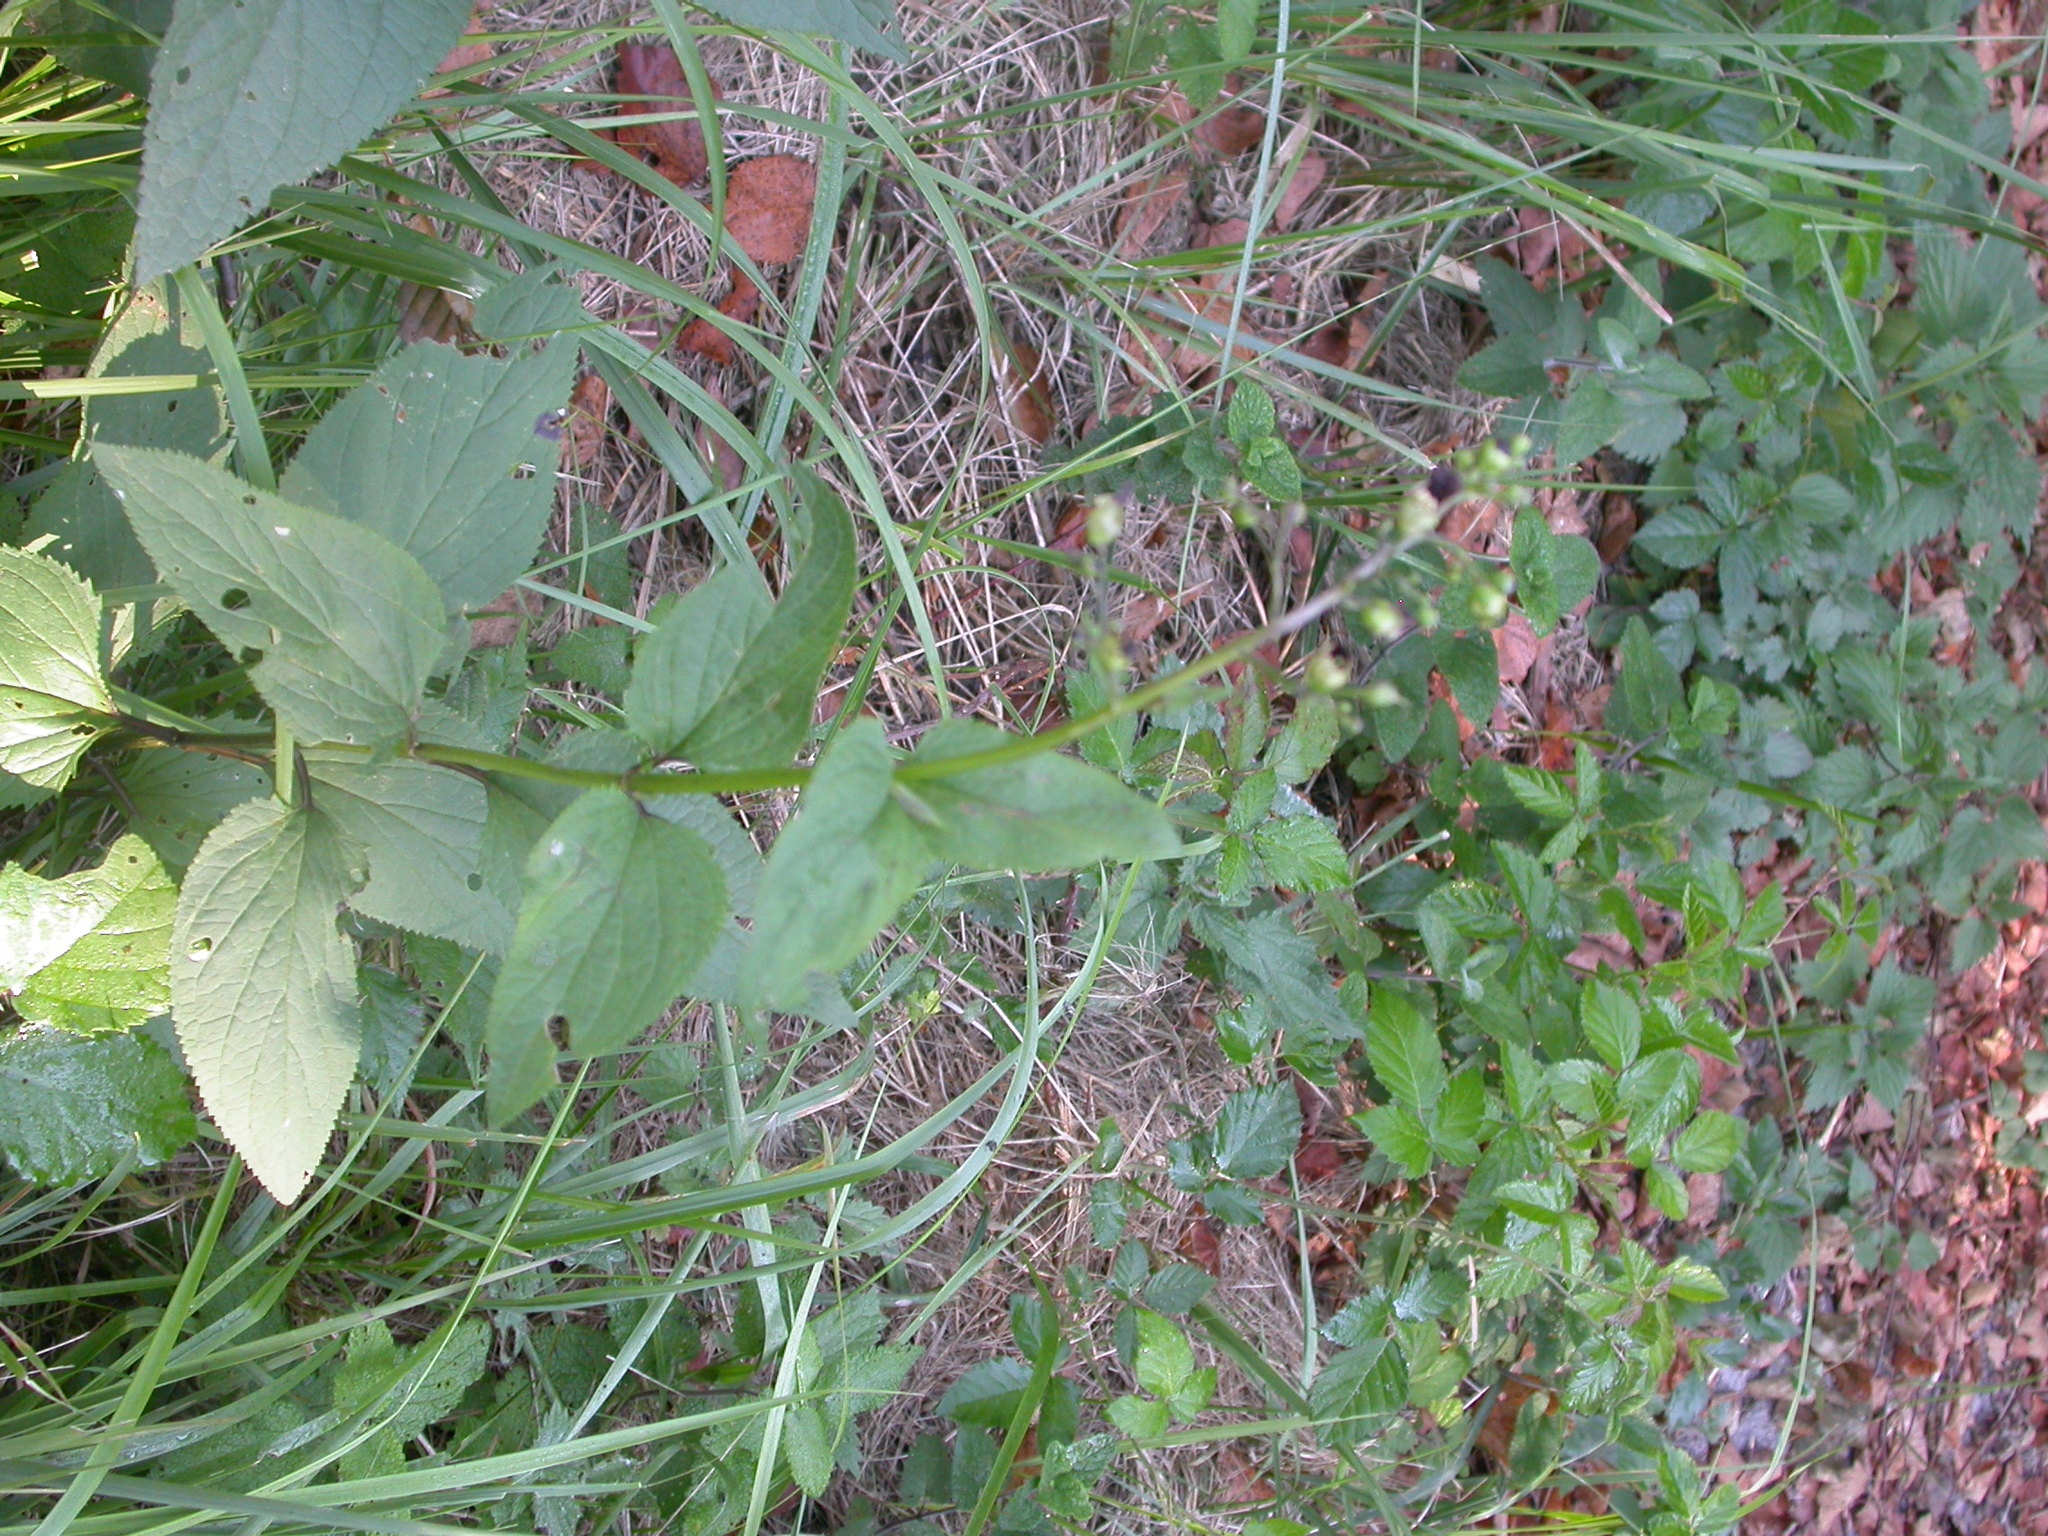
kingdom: Plantae
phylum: Tracheophyta
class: Magnoliopsida
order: Lamiales
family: Scrophulariaceae
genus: Scrophularia
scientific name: Scrophularia nodosa
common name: Common figwort
